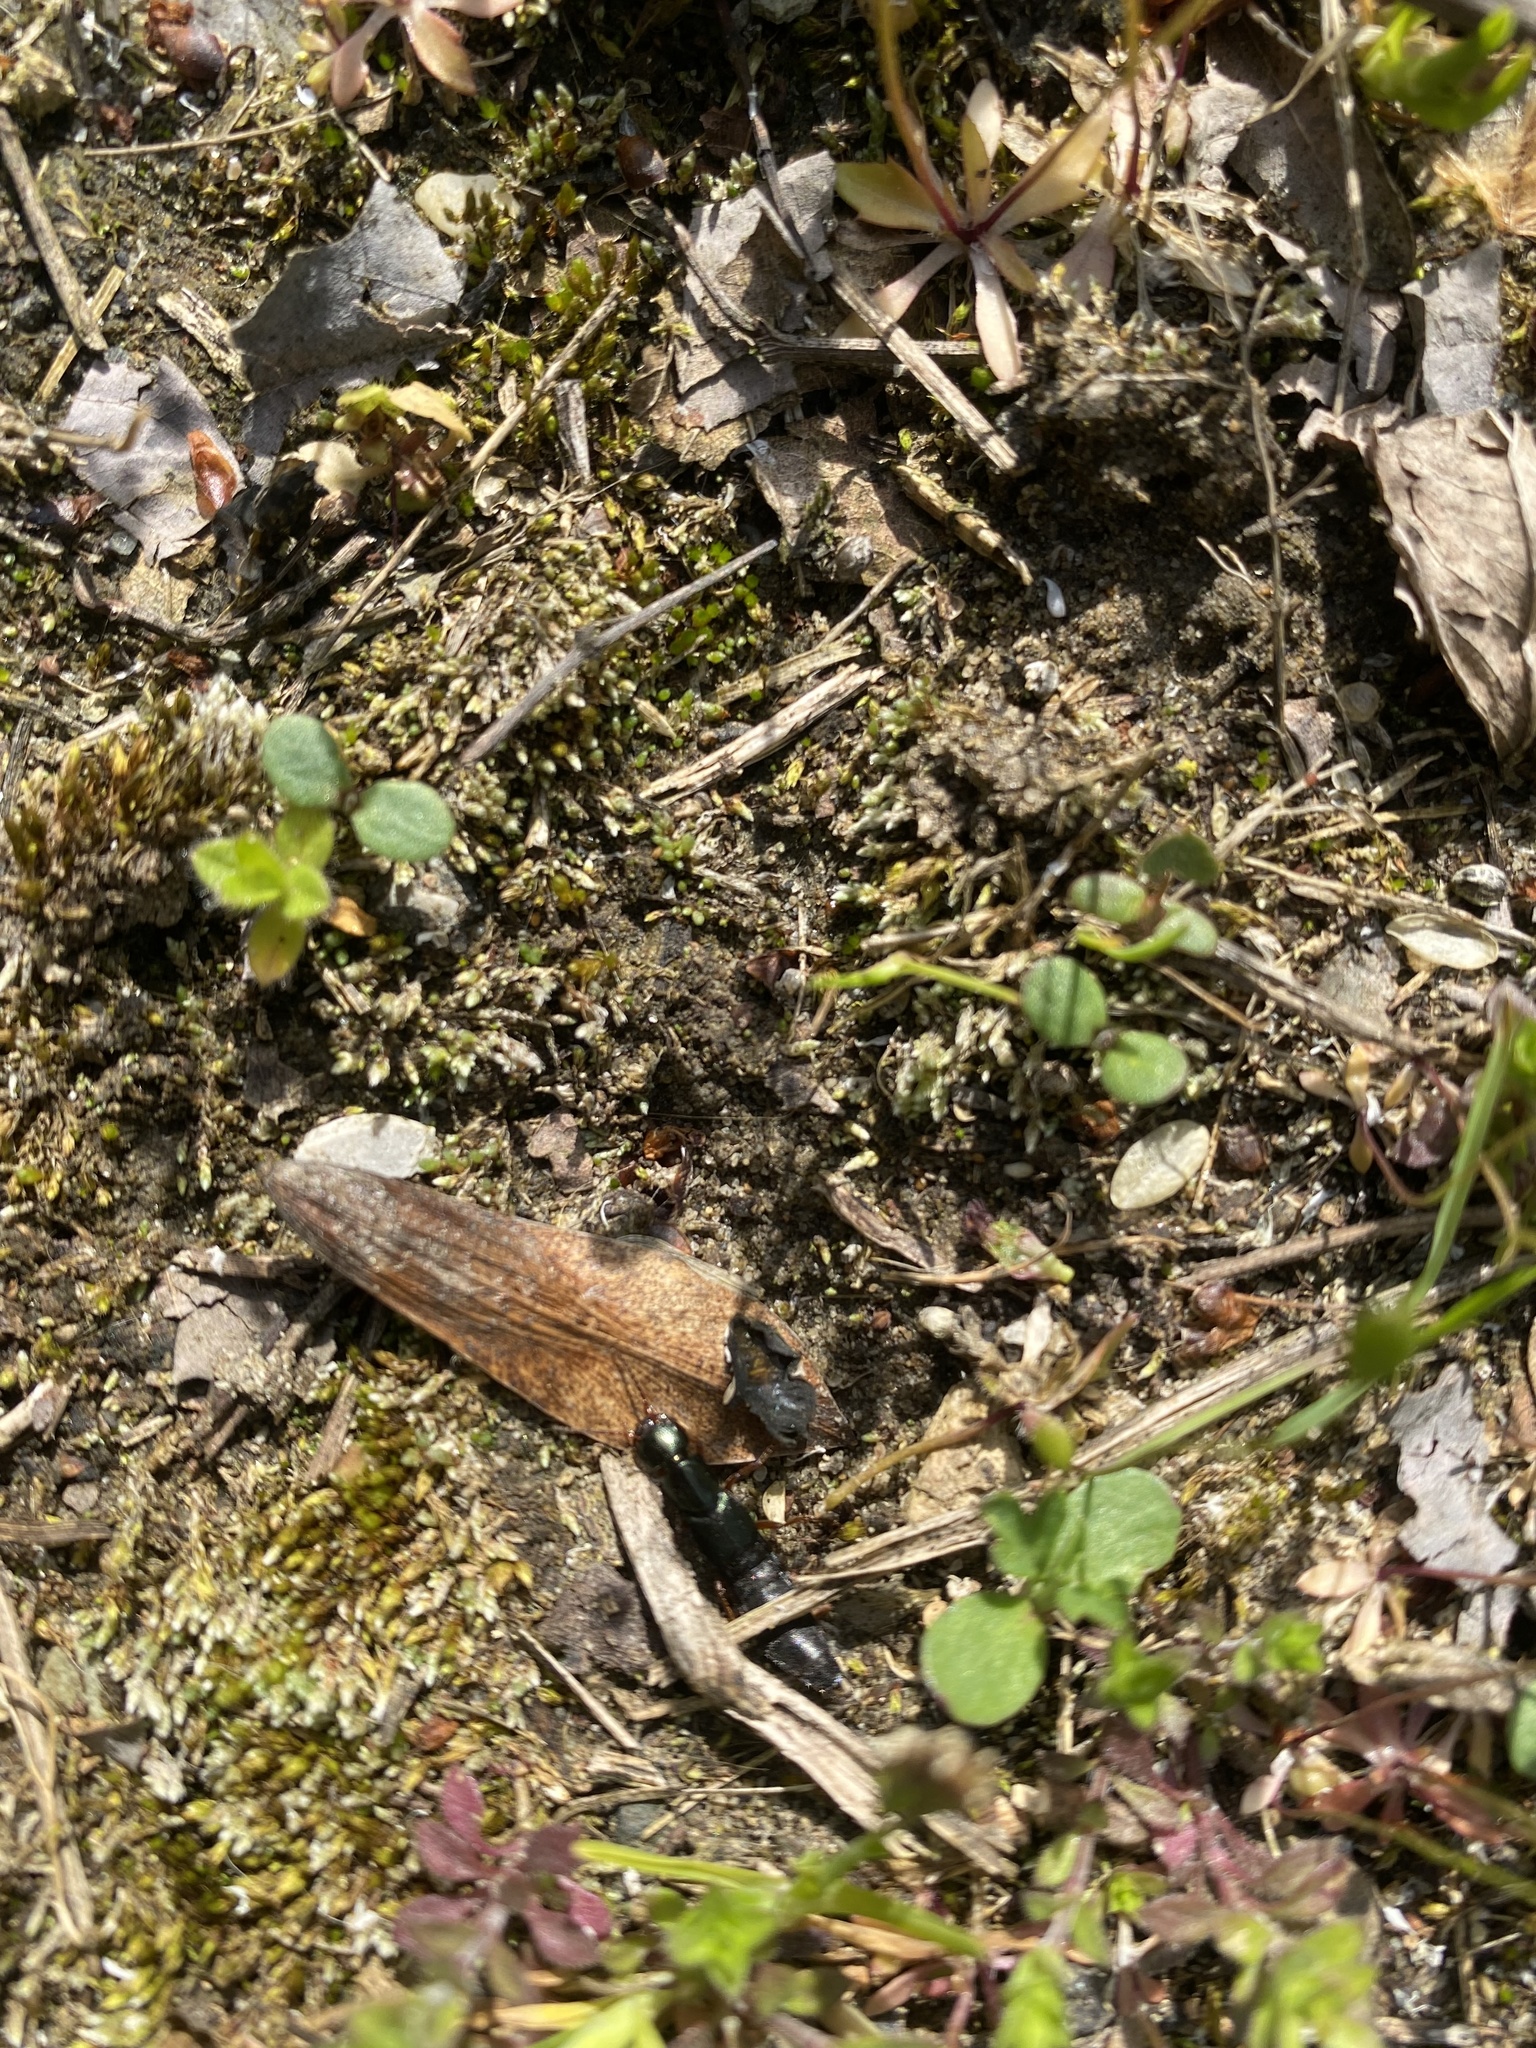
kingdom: Animalia
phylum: Arthropoda
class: Insecta
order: Coleoptera
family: Staphylinidae
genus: Tasgius
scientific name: Tasgius
